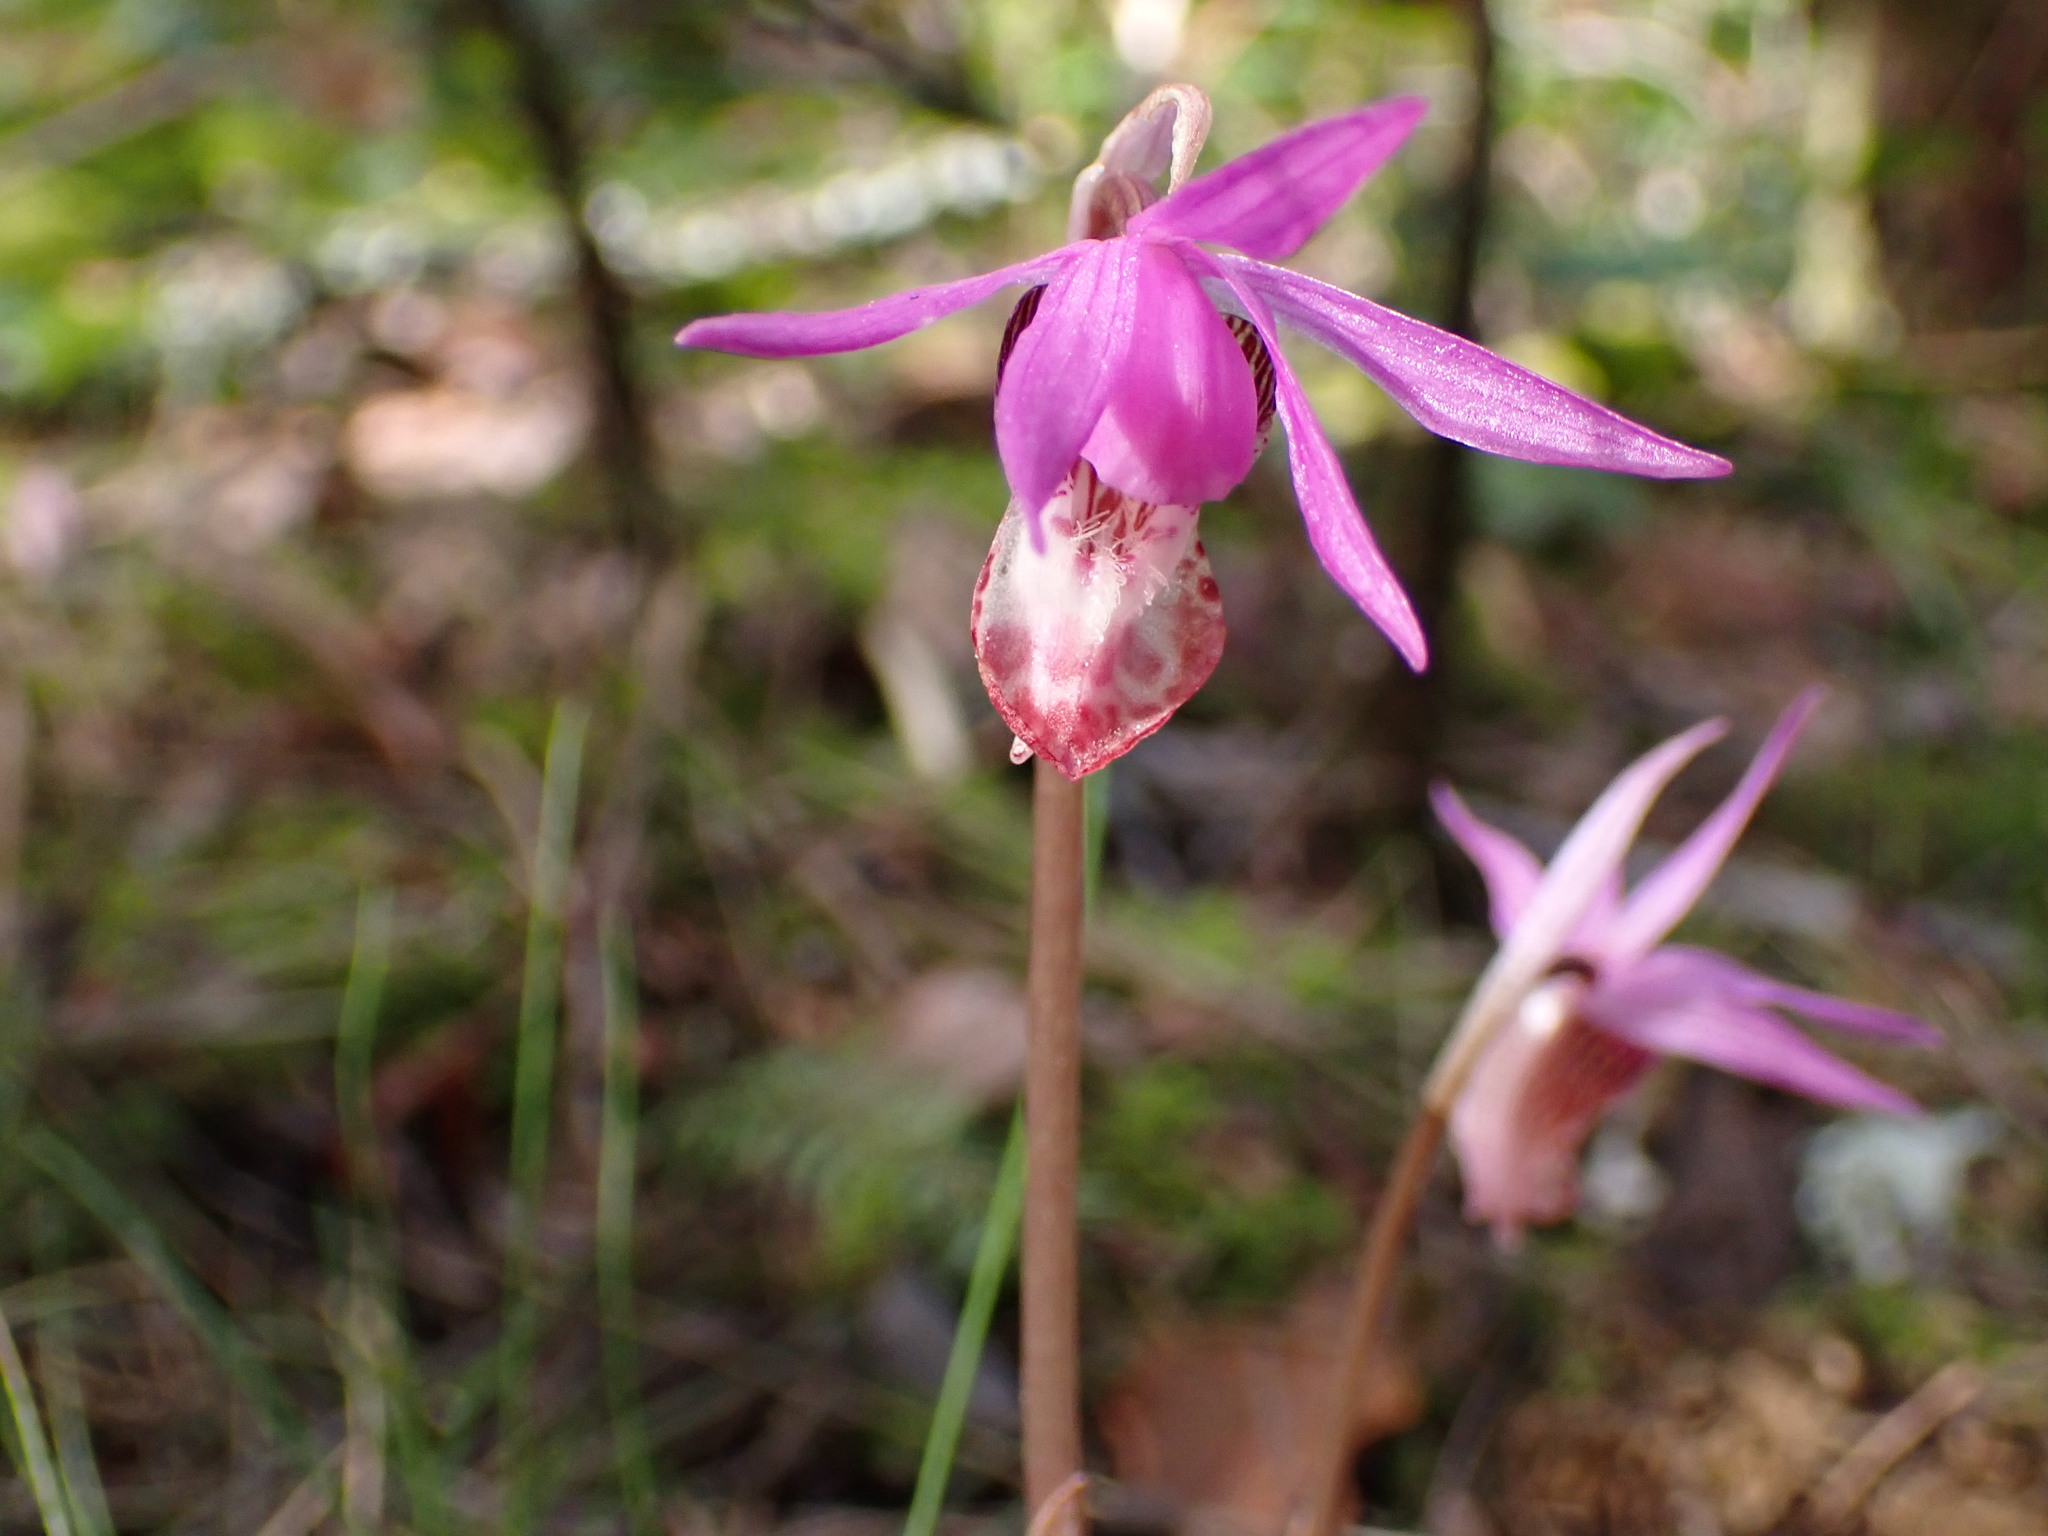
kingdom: Plantae
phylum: Tracheophyta
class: Liliopsida
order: Asparagales
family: Orchidaceae
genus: Calypso
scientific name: Calypso bulbosa
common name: Calypso
